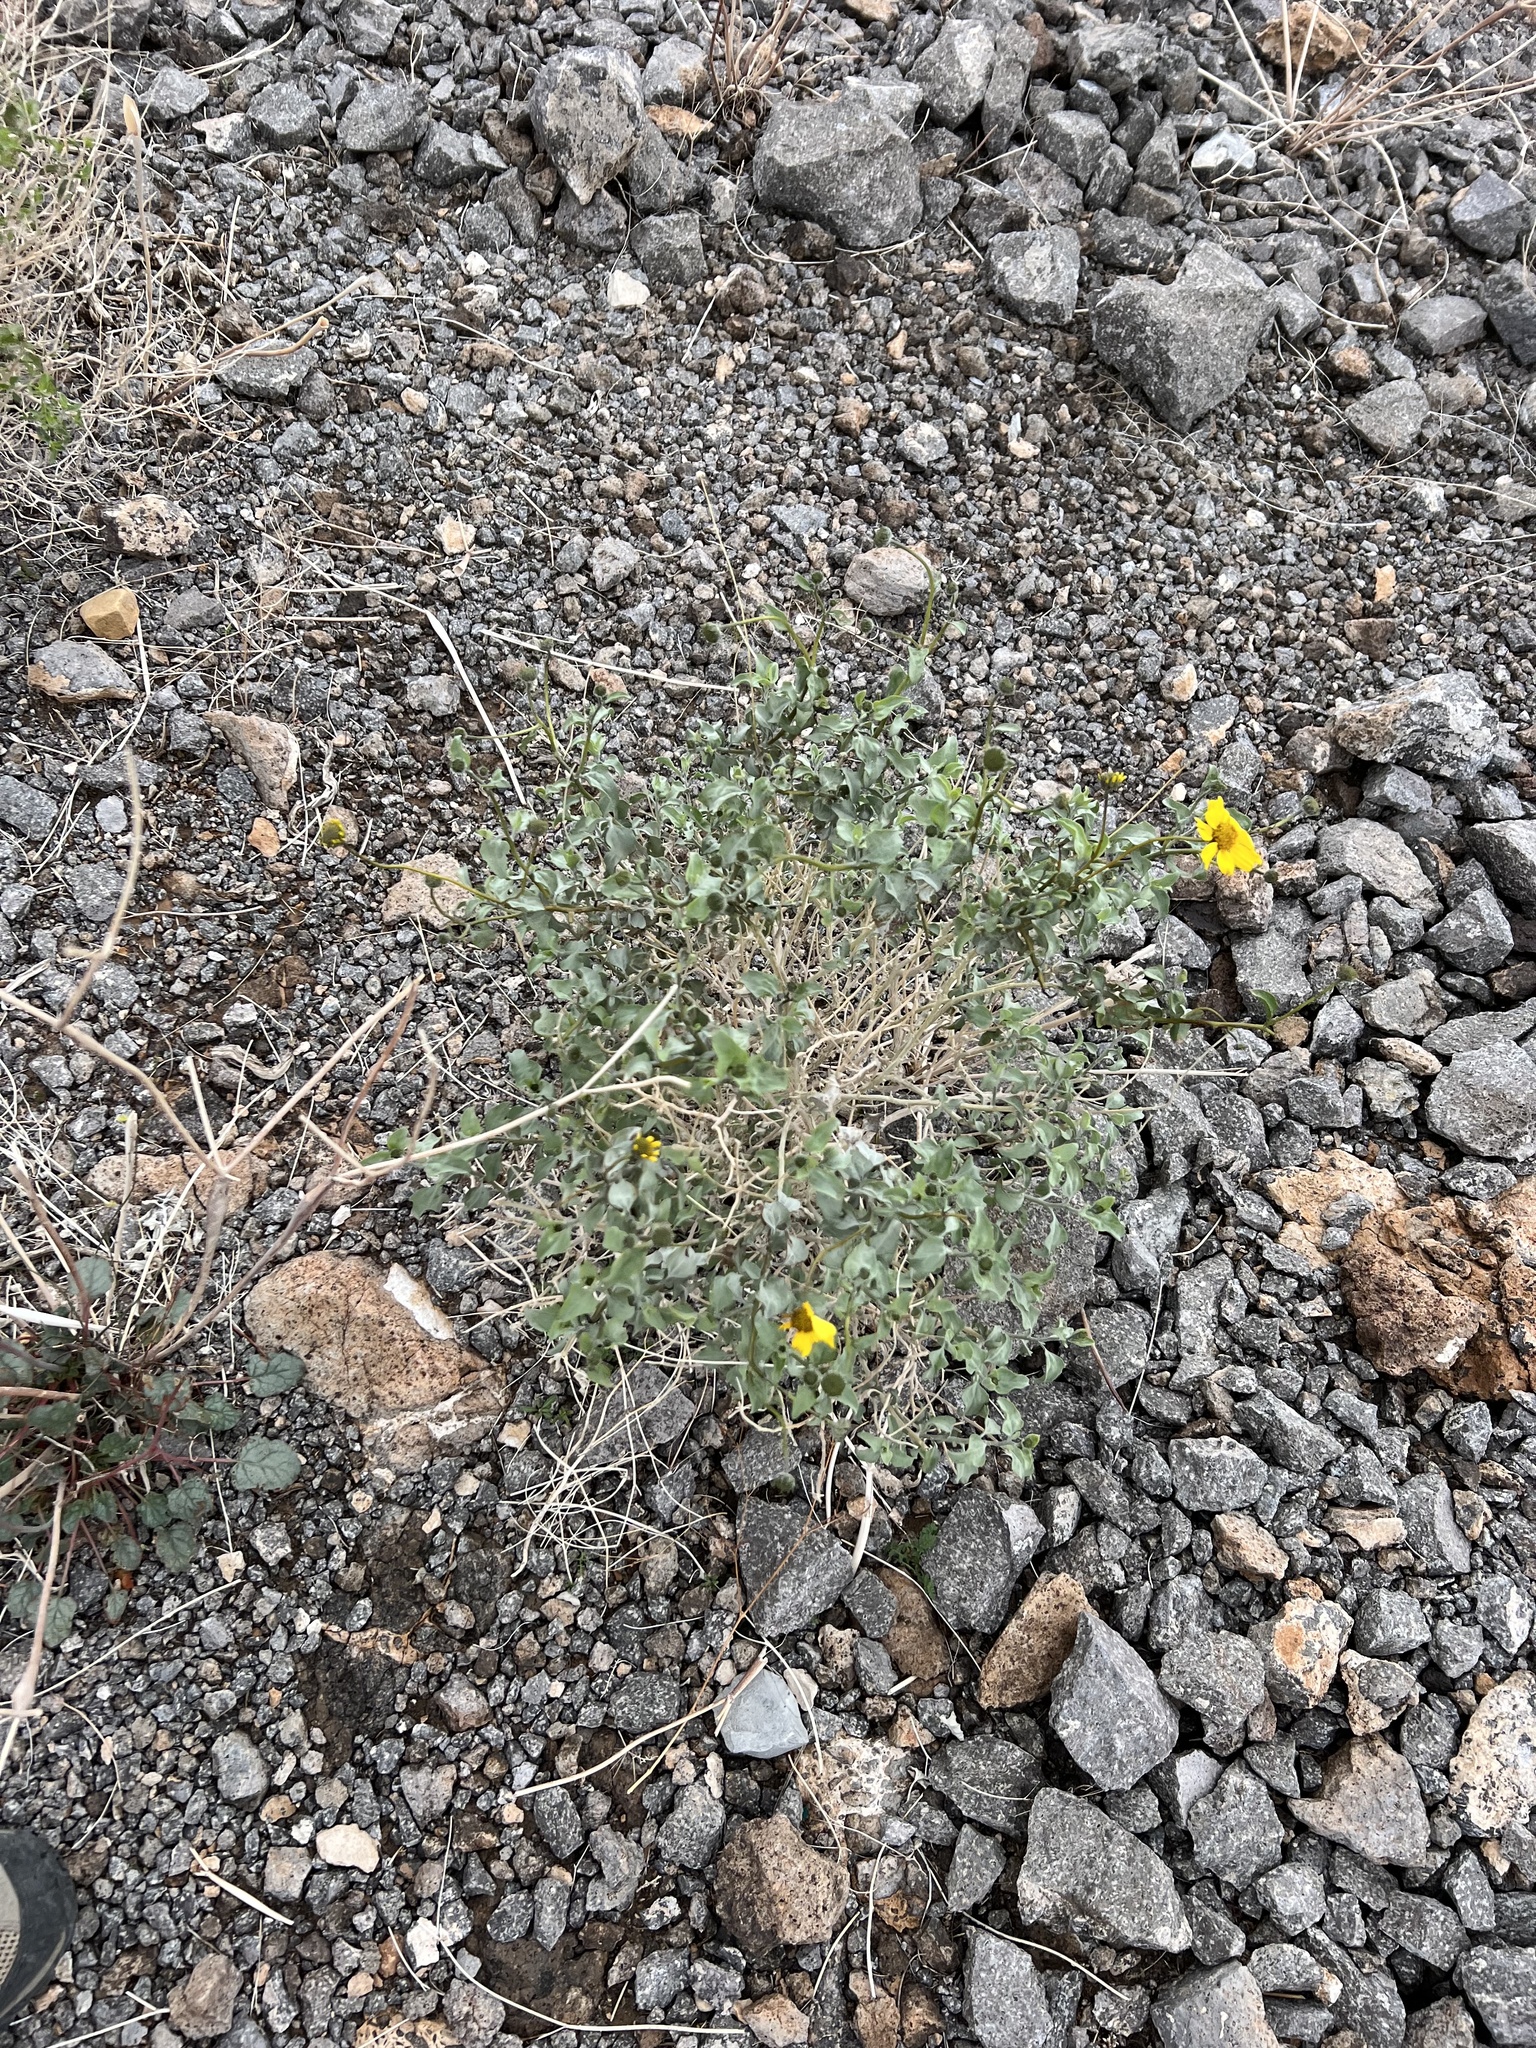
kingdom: Plantae
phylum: Tracheophyta
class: Magnoliopsida
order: Asterales
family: Asteraceae
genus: Encelia
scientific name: Encelia farinosa
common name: Brittlebush
